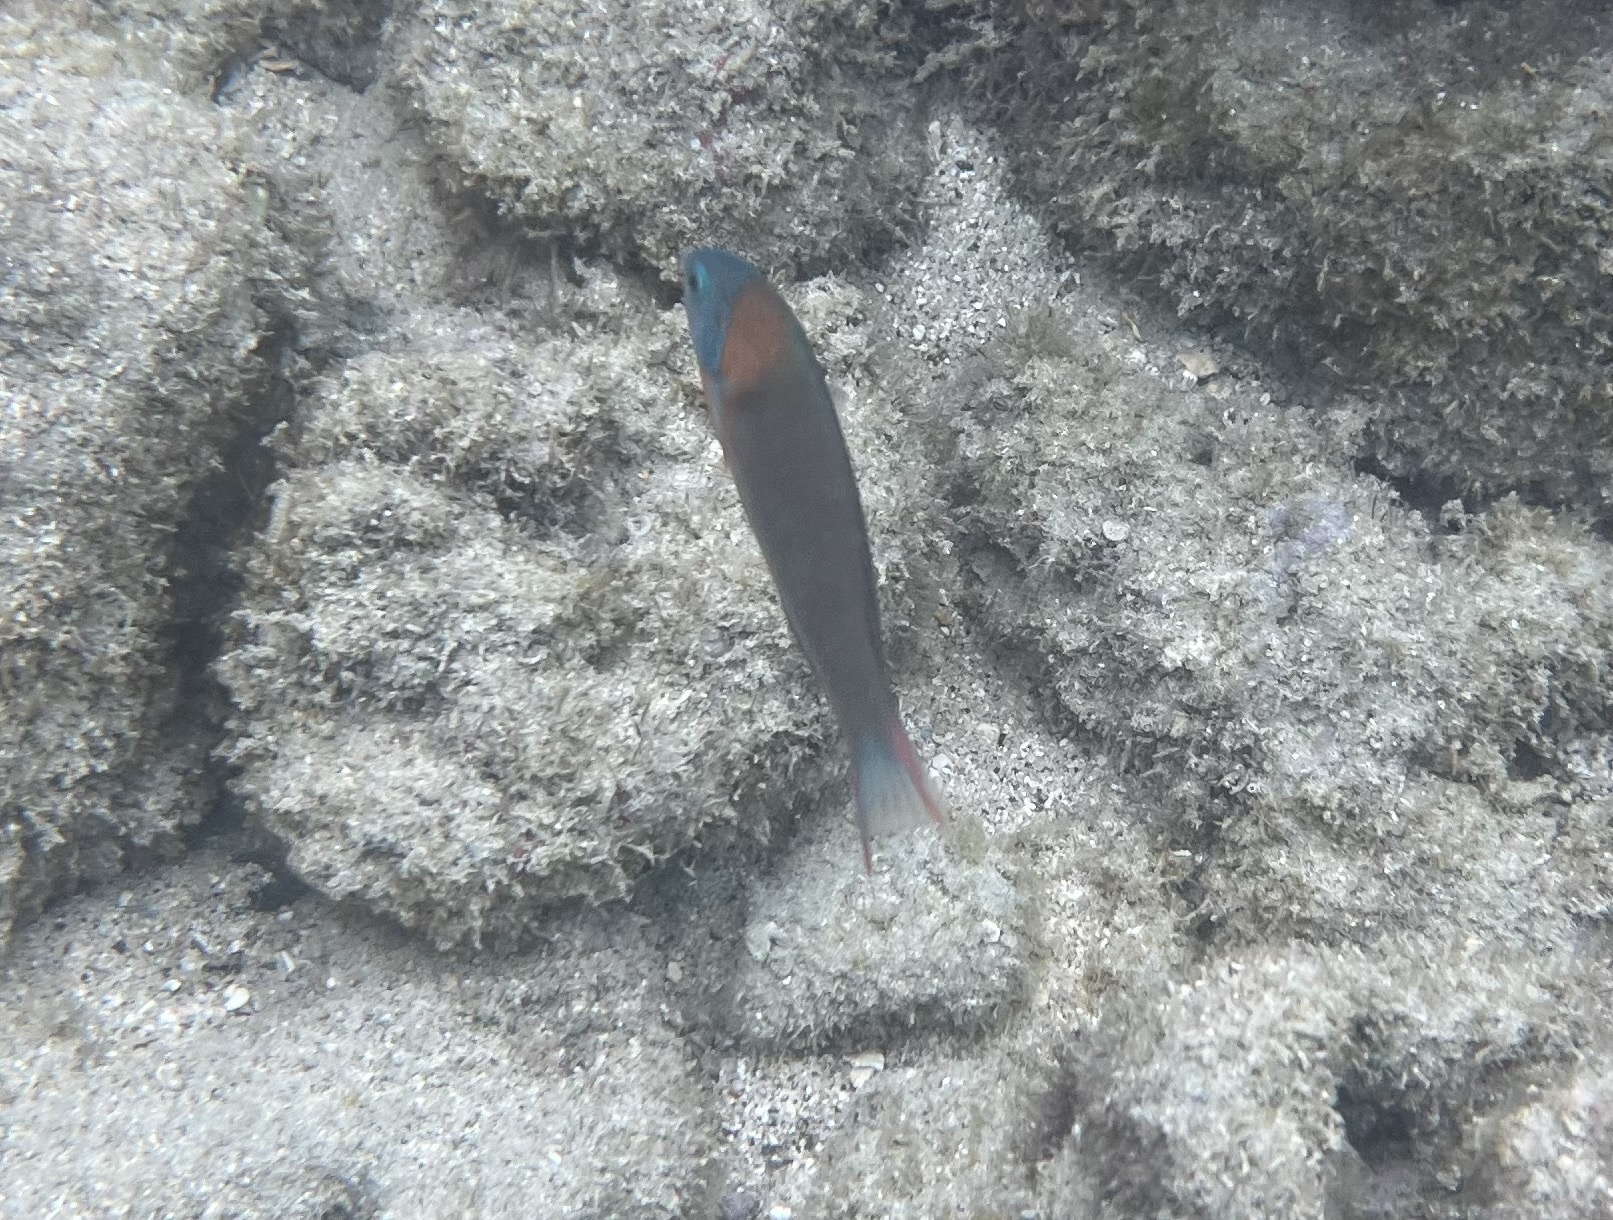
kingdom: Animalia
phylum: Chordata
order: Perciformes
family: Labridae
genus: Thalassoma
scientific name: Thalassoma duperrey
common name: Saddle wrasse
